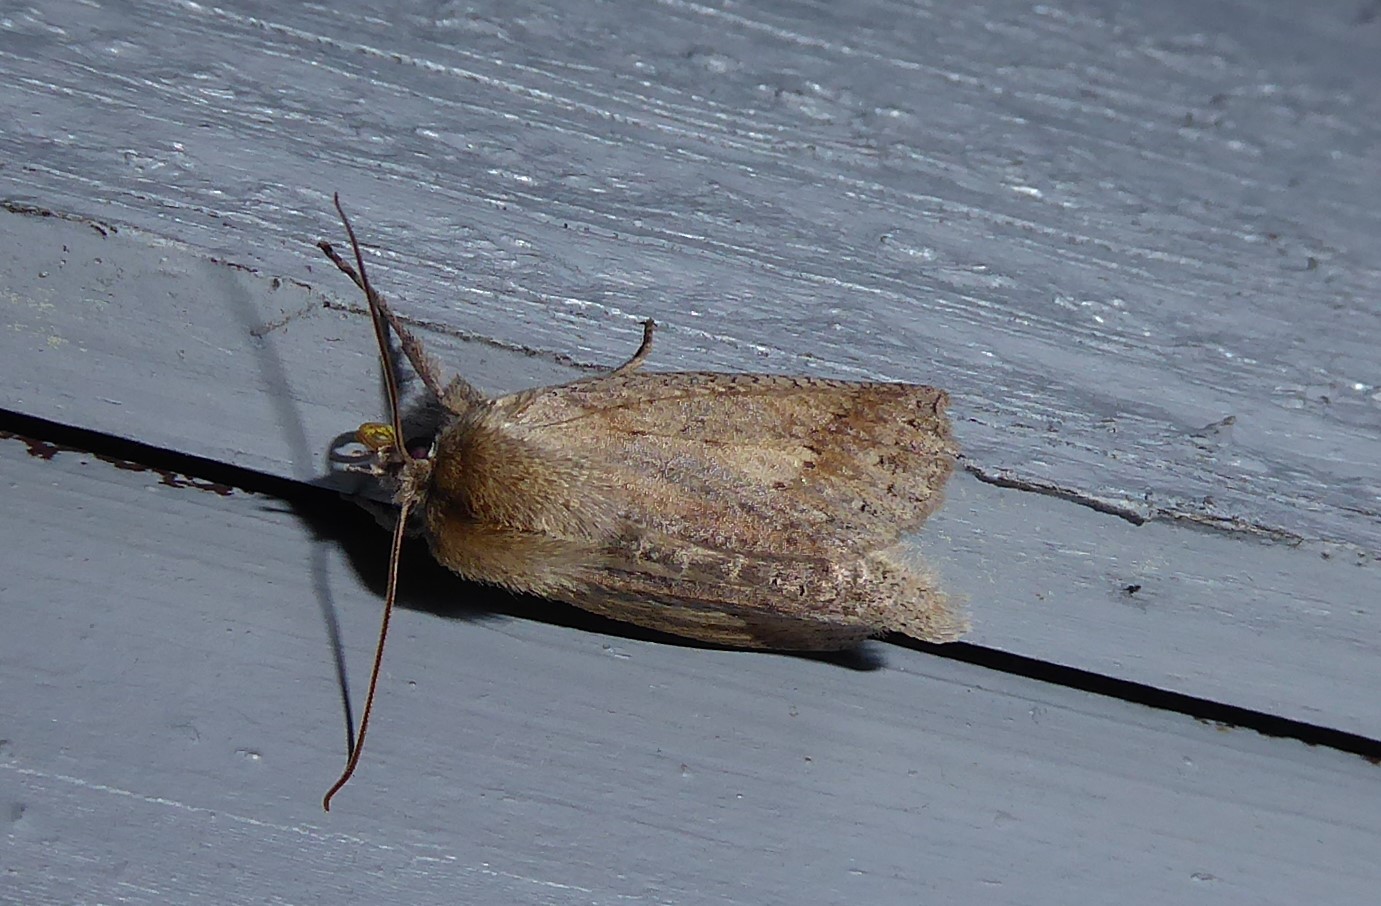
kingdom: Animalia
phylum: Arthropoda
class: Insecta
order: Lepidoptera
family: Geometridae
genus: Declana
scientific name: Declana leptomera
